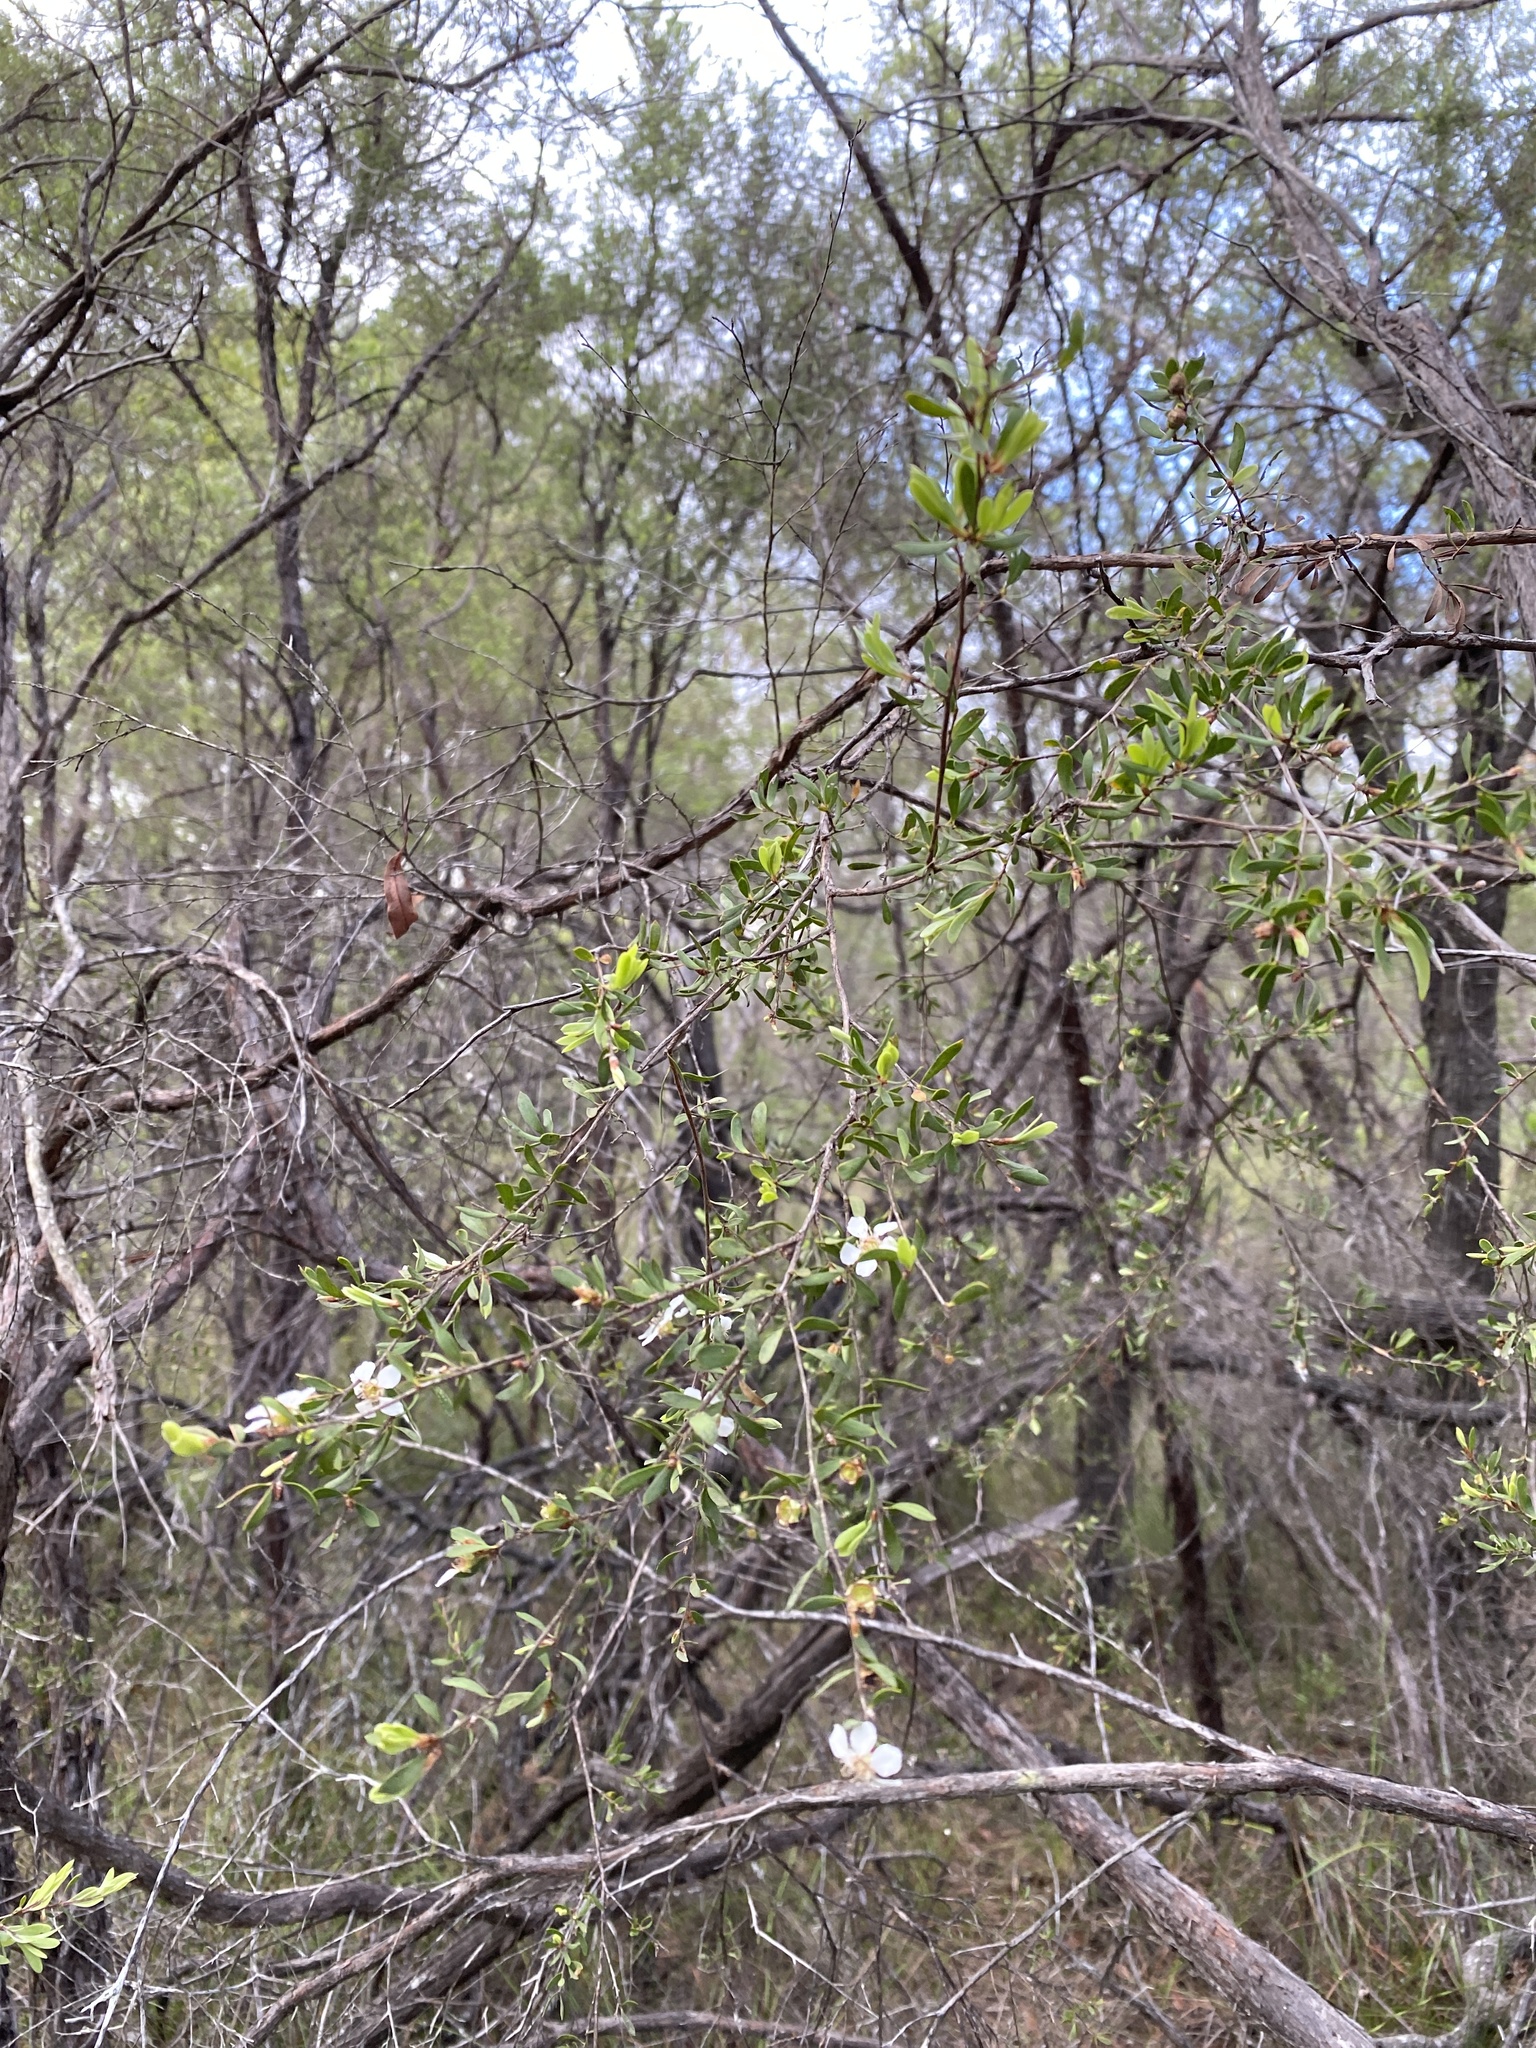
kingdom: Plantae
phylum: Tracheophyta
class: Magnoliopsida
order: Myrtales
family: Myrtaceae
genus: Leptospermum
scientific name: Leptospermum trinervium
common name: Flaky-barked tea-tree
